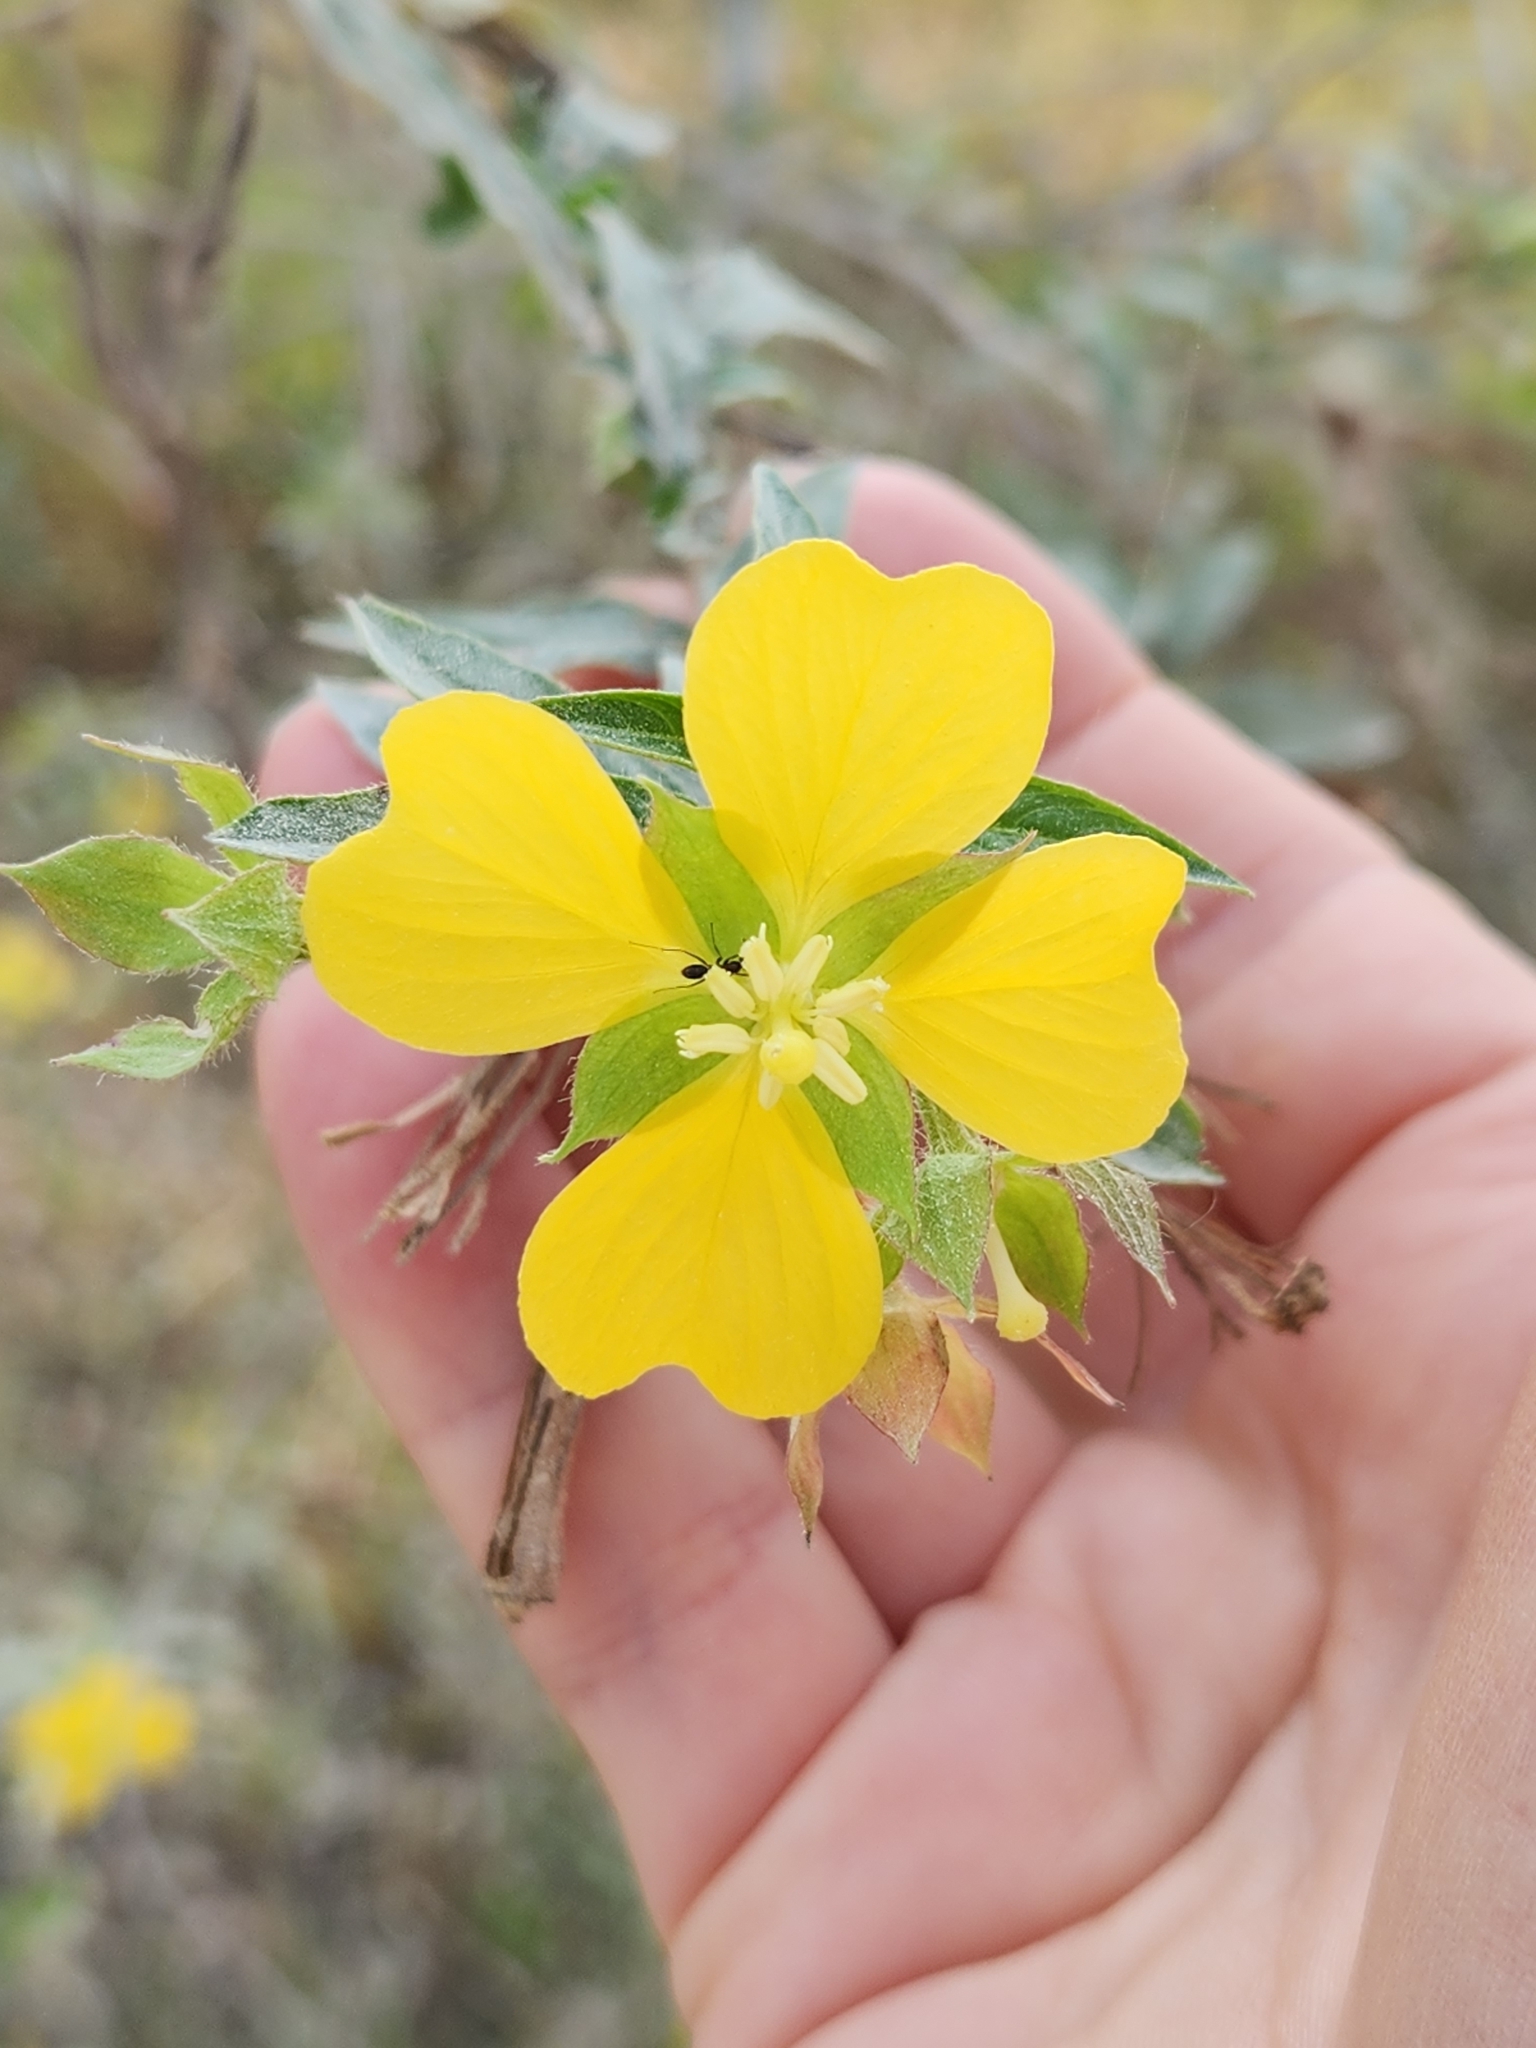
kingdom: Plantae
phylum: Tracheophyta
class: Magnoliopsida
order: Myrtales
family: Onagraceae
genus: Ludwigia
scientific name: Ludwigia octovalvis
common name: Water-primrose
